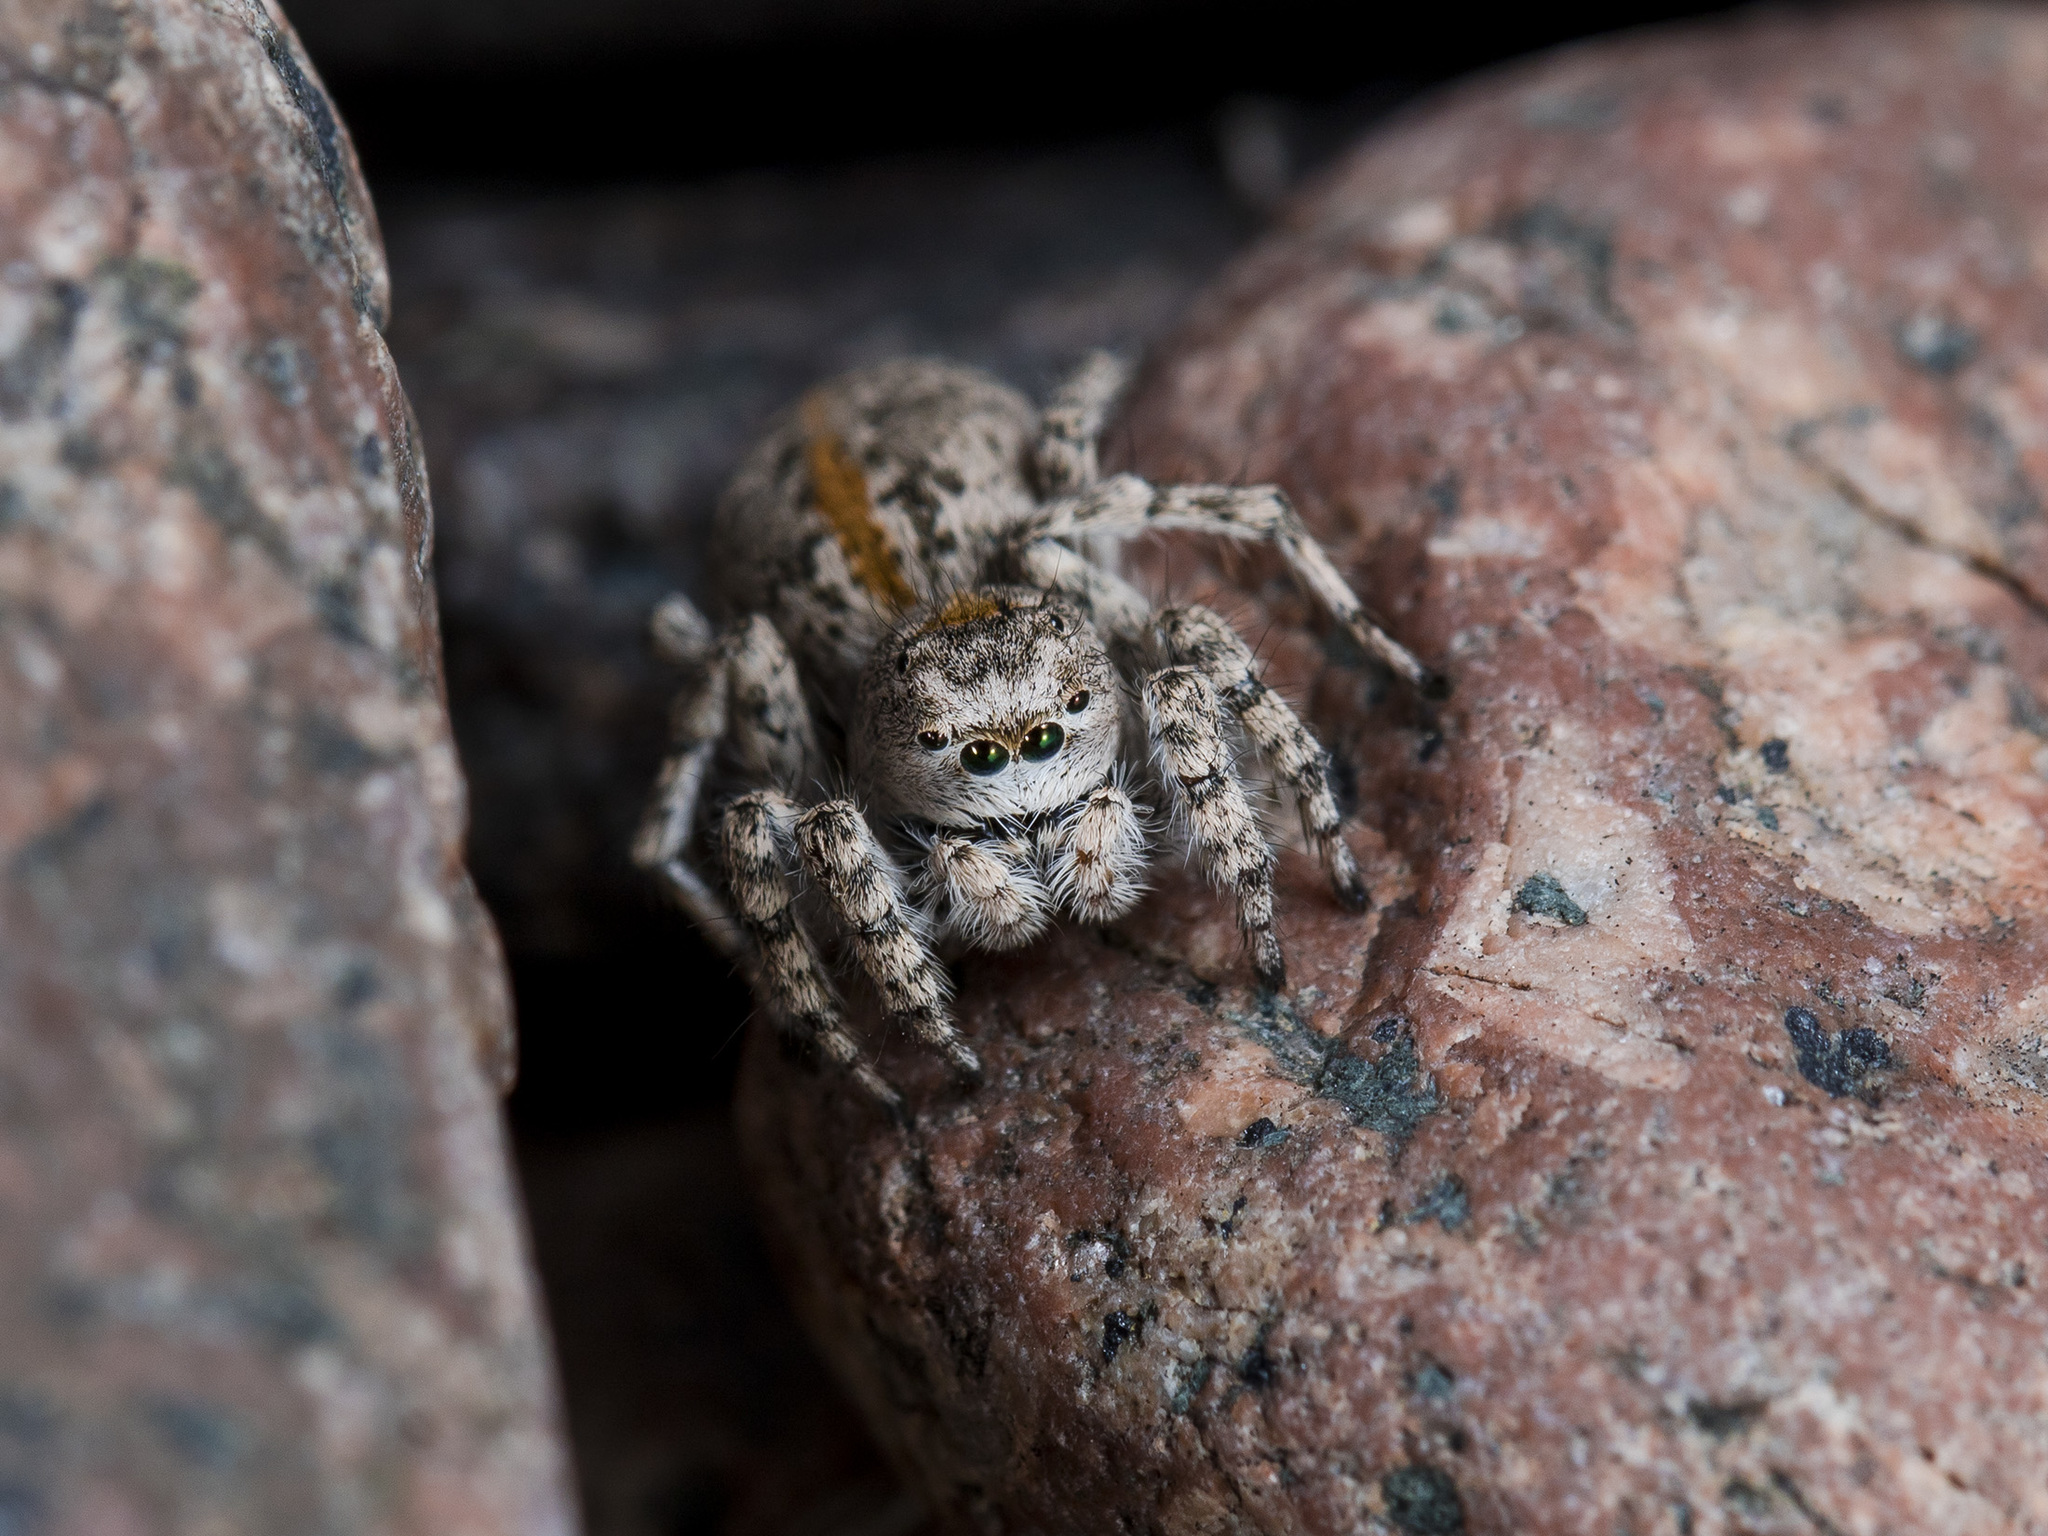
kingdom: Animalia
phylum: Arthropoda
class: Arachnida
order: Araneae
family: Salticidae
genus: Aelurillus
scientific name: Aelurillus dubatolovi
